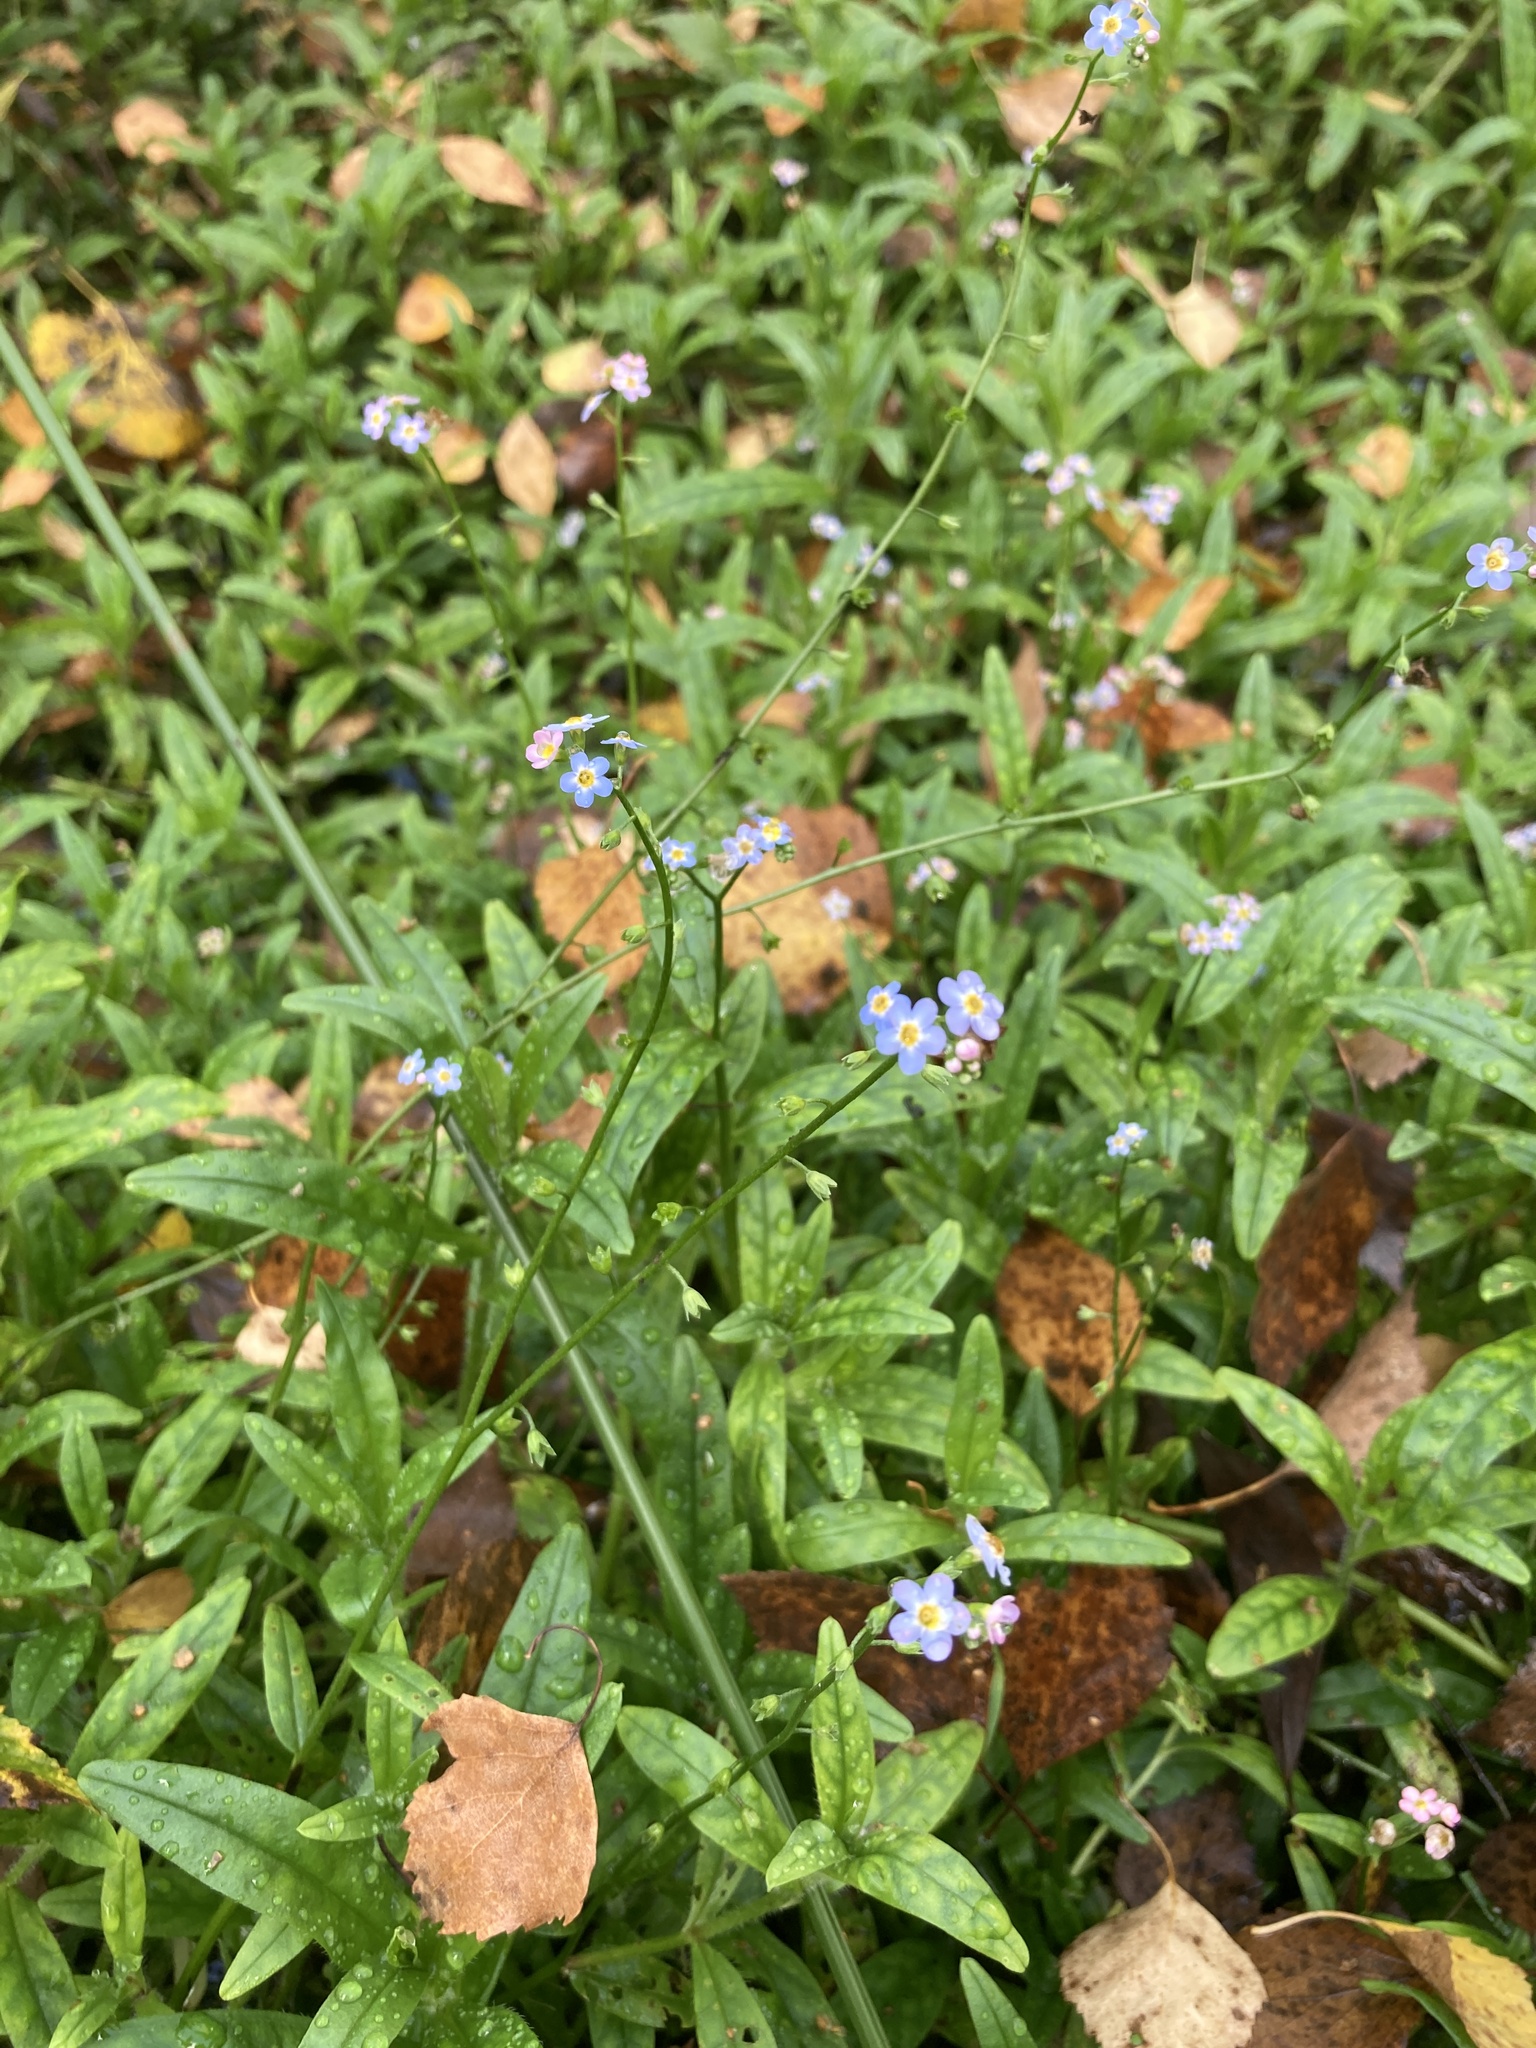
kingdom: Plantae
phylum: Tracheophyta
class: Magnoliopsida
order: Boraginales
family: Boraginaceae
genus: Myosotis
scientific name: Myosotis scorpioides
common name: Water forget-me-not
